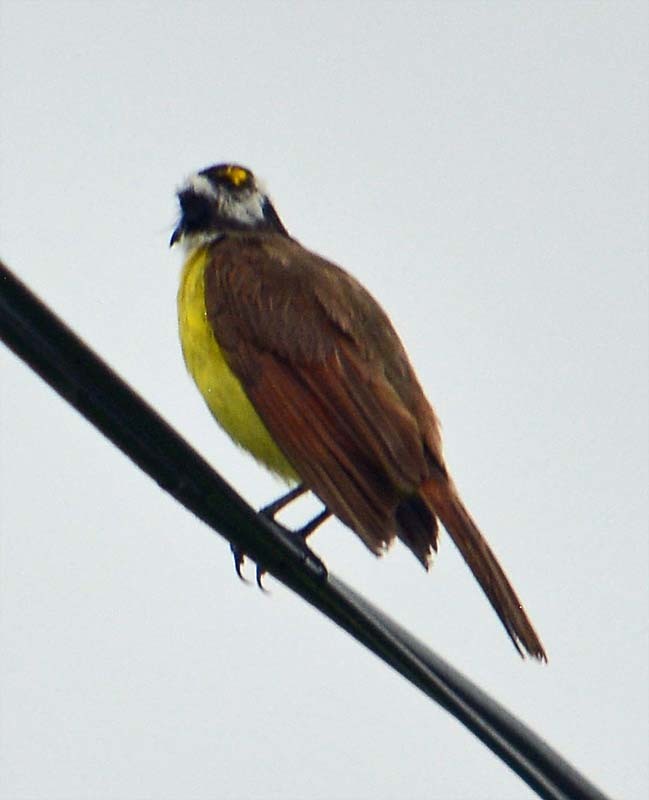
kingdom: Animalia
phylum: Chordata
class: Aves
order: Passeriformes
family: Tyrannidae
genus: Pitangus
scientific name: Pitangus sulphuratus
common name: Great kiskadee
